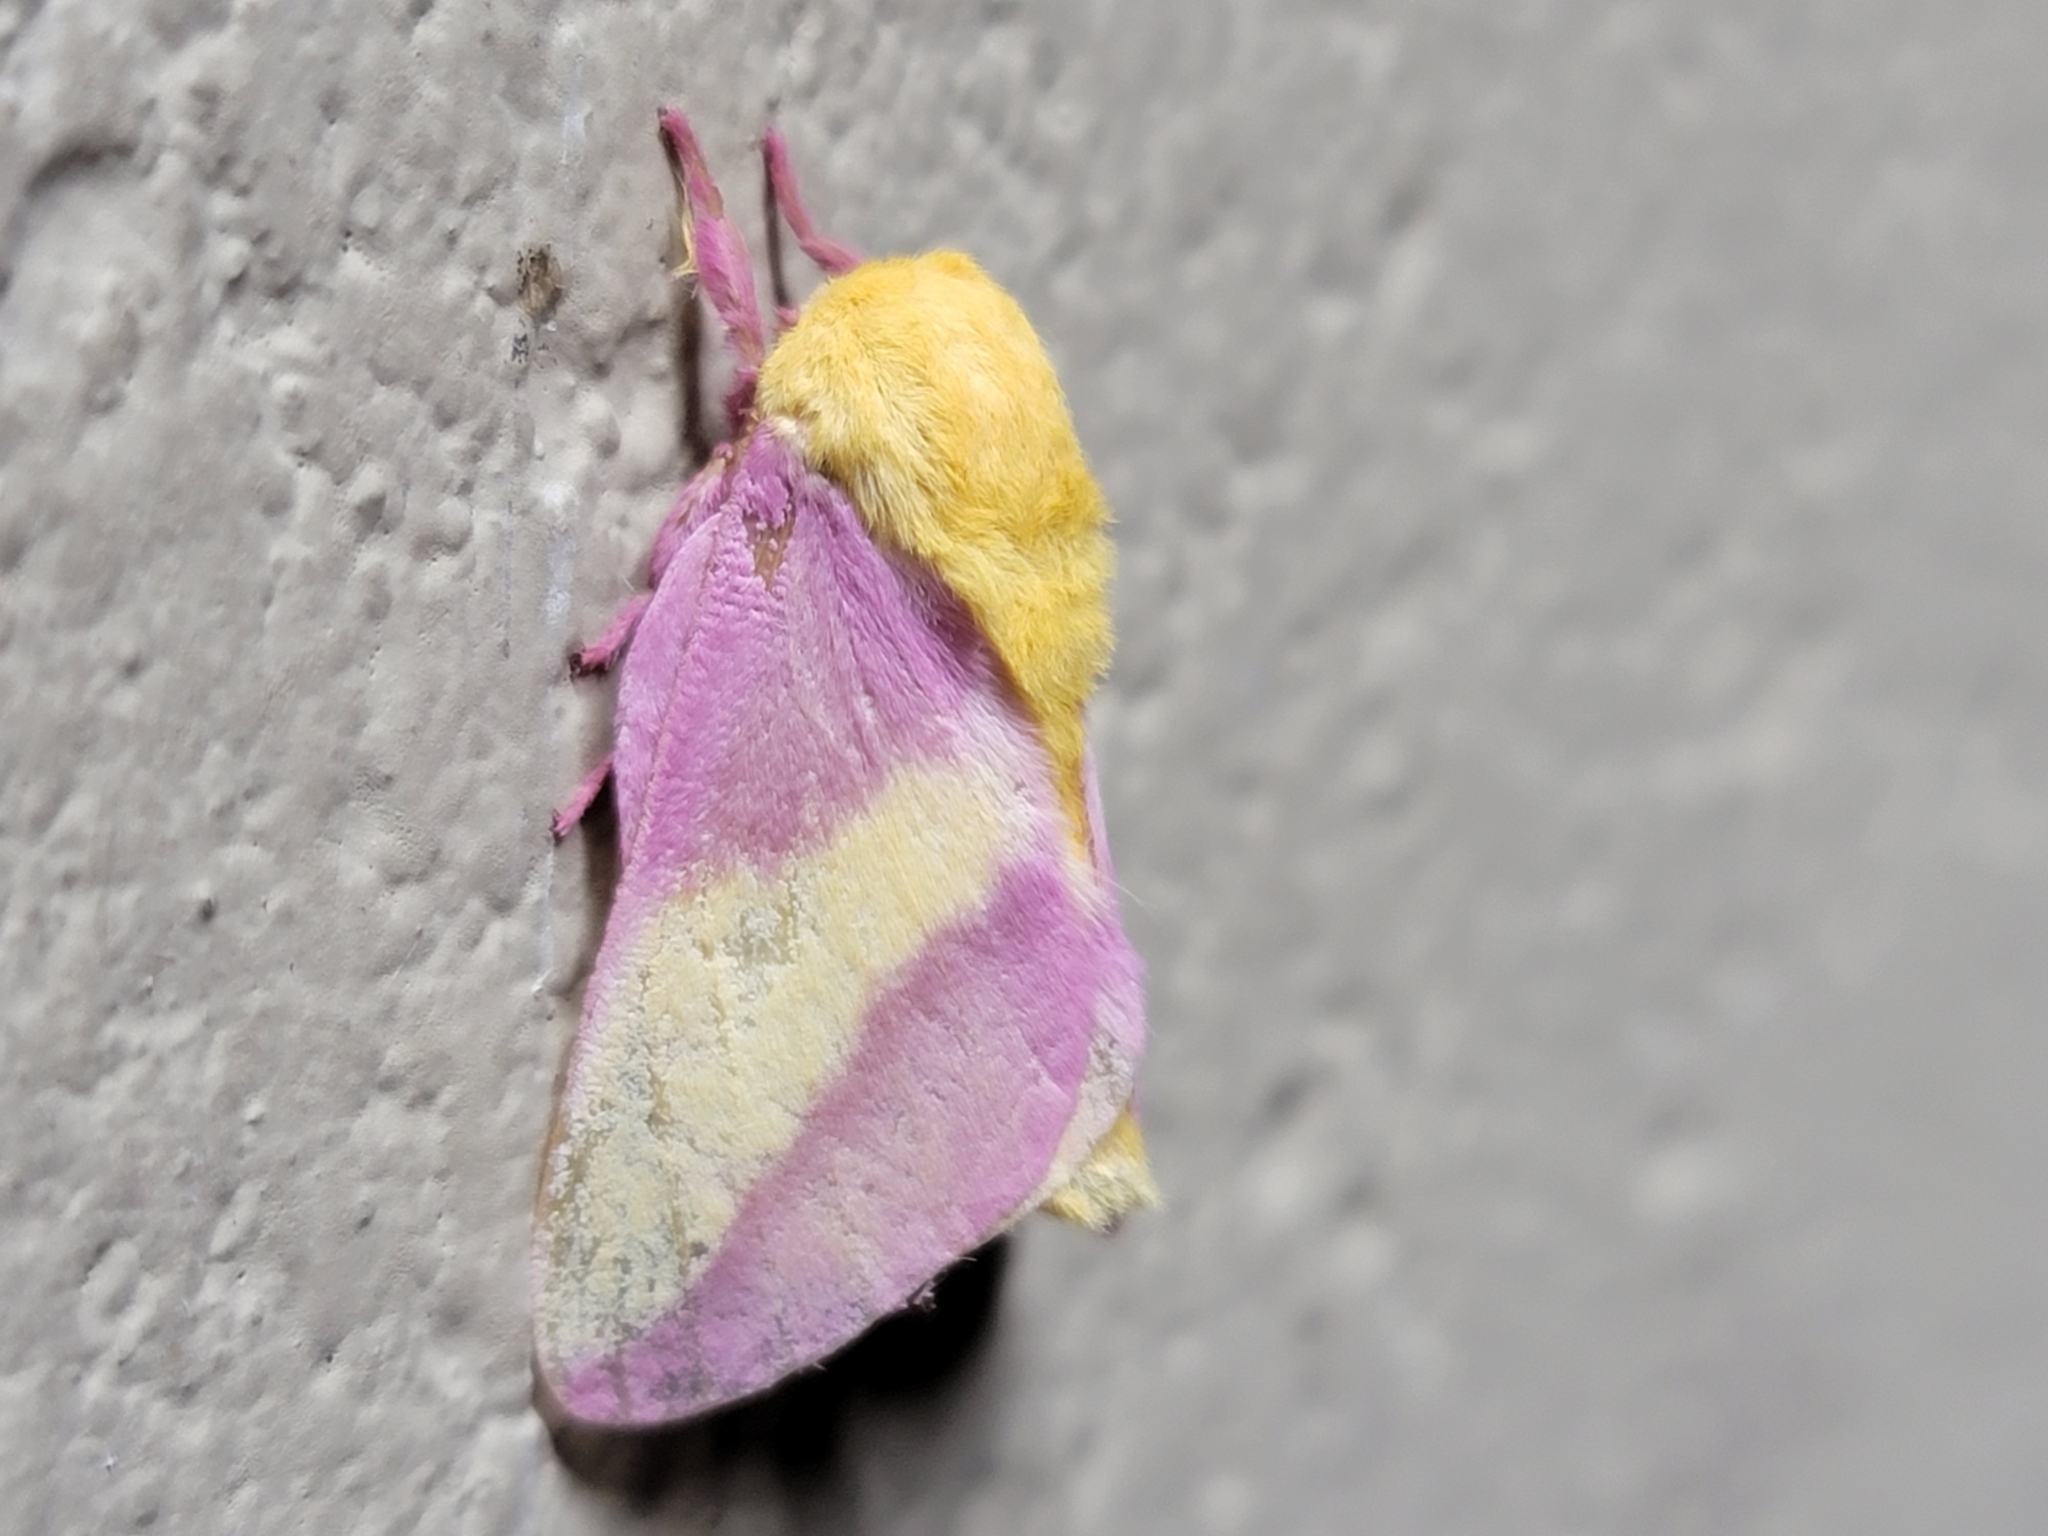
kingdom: Animalia
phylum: Arthropoda
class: Insecta
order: Lepidoptera
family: Saturniidae
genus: Dryocampa
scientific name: Dryocampa rubicunda
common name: Rosy maple moth
